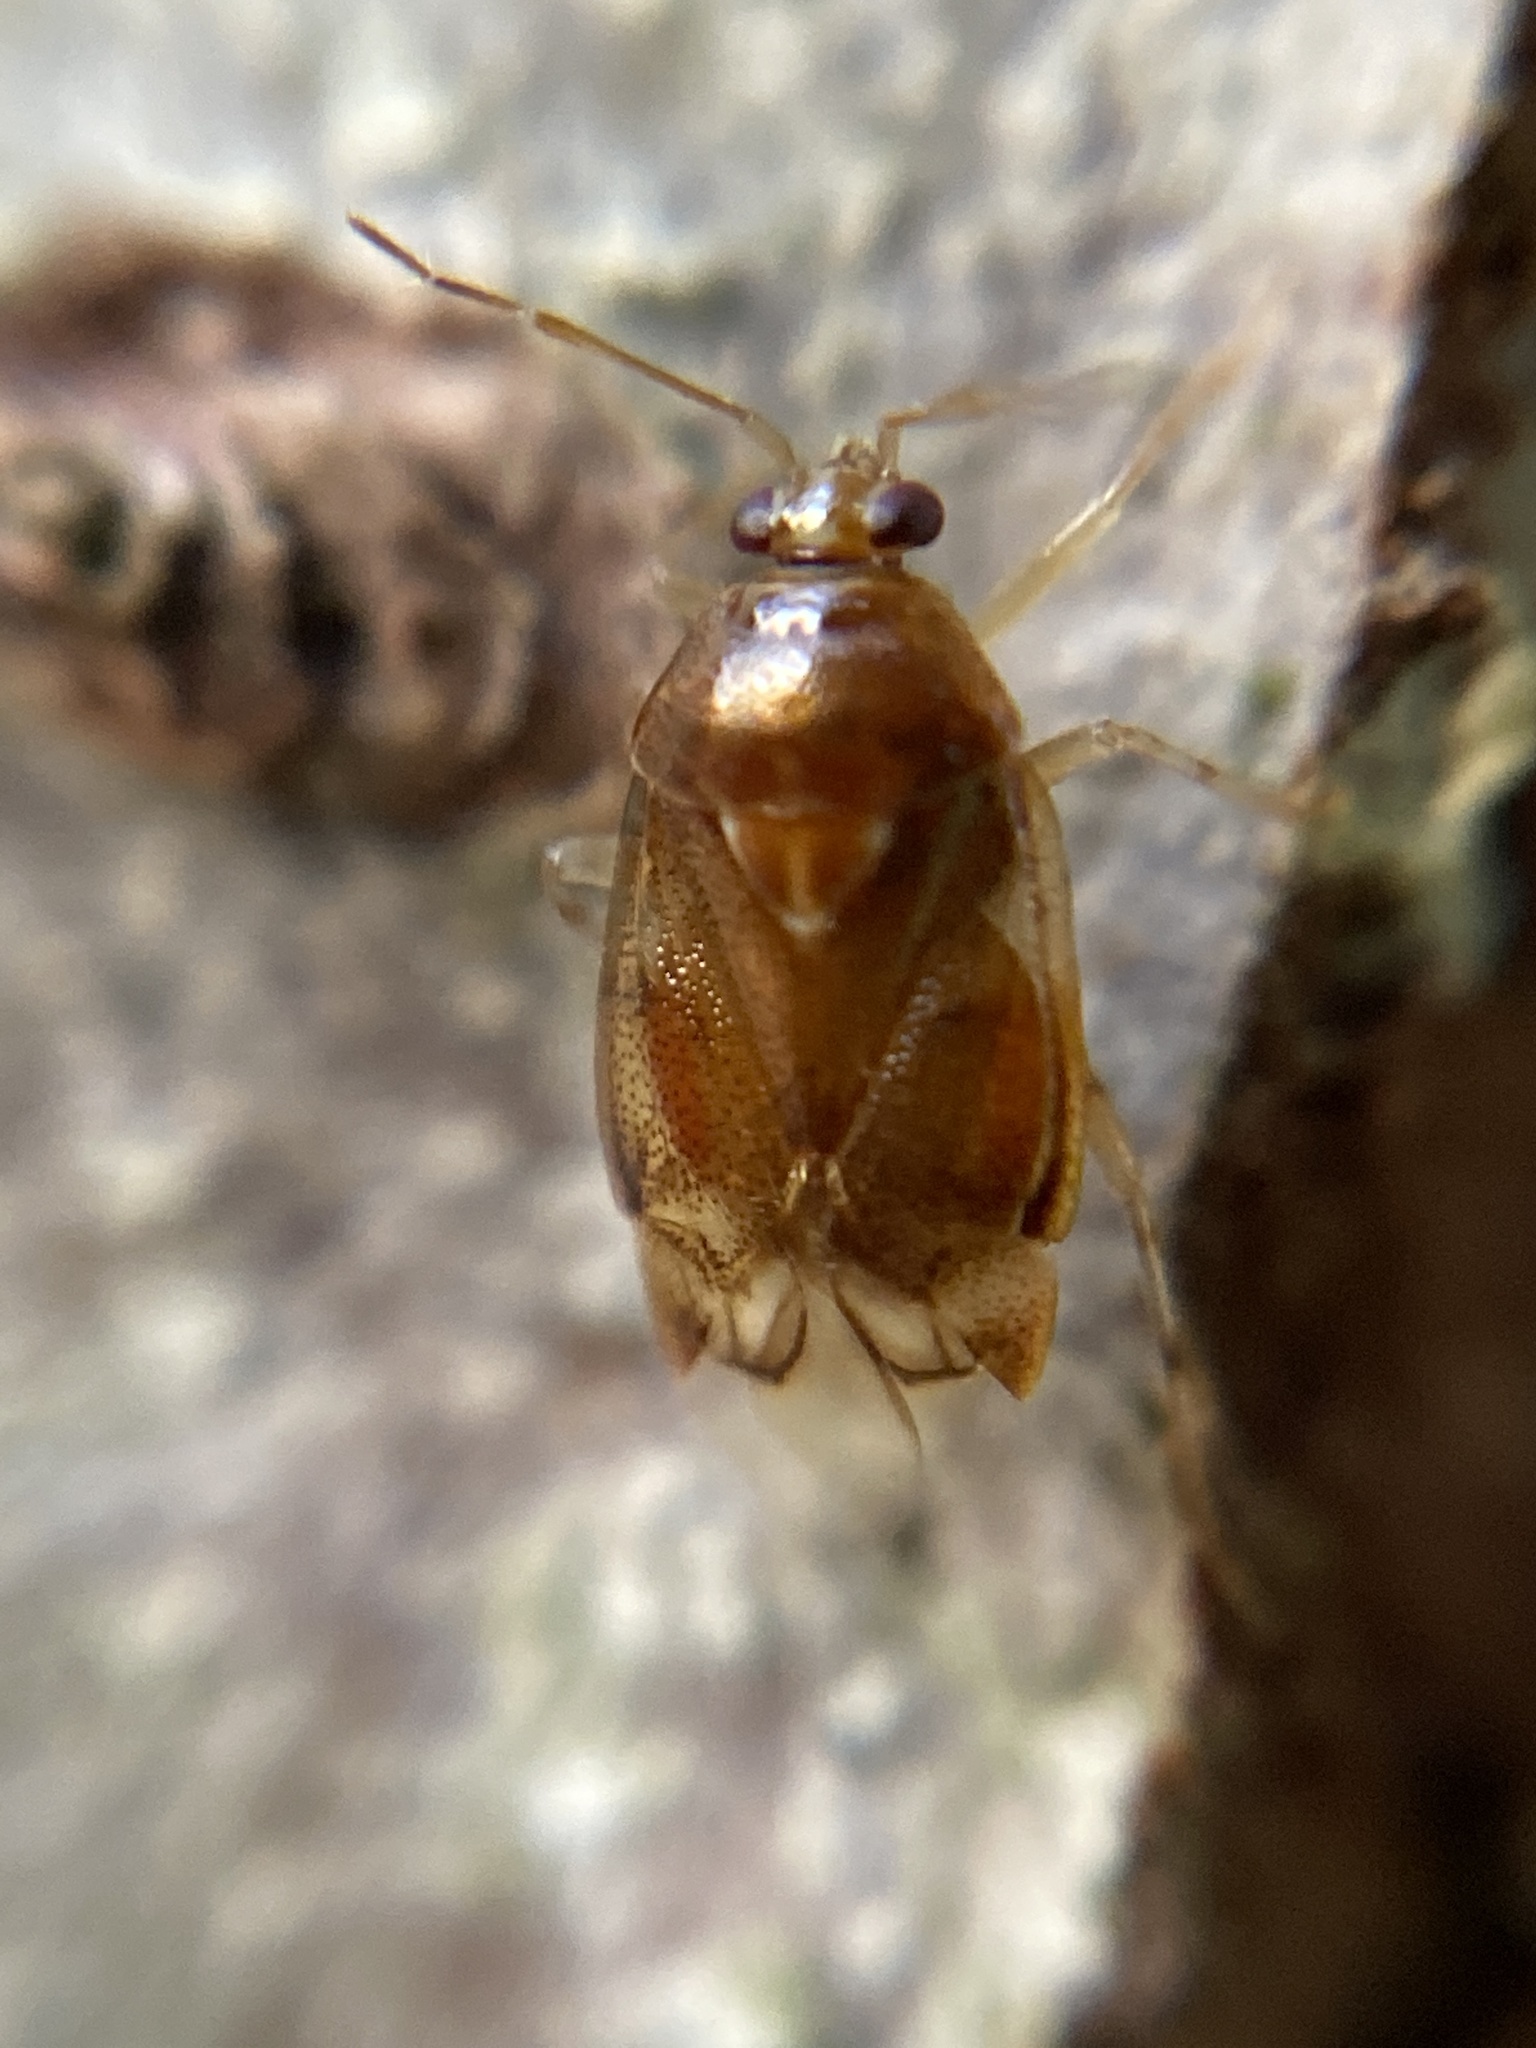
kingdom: Animalia
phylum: Arthropoda
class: Insecta
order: Hemiptera
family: Miridae
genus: Deraeocoris
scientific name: Deraeocoris lutescens
